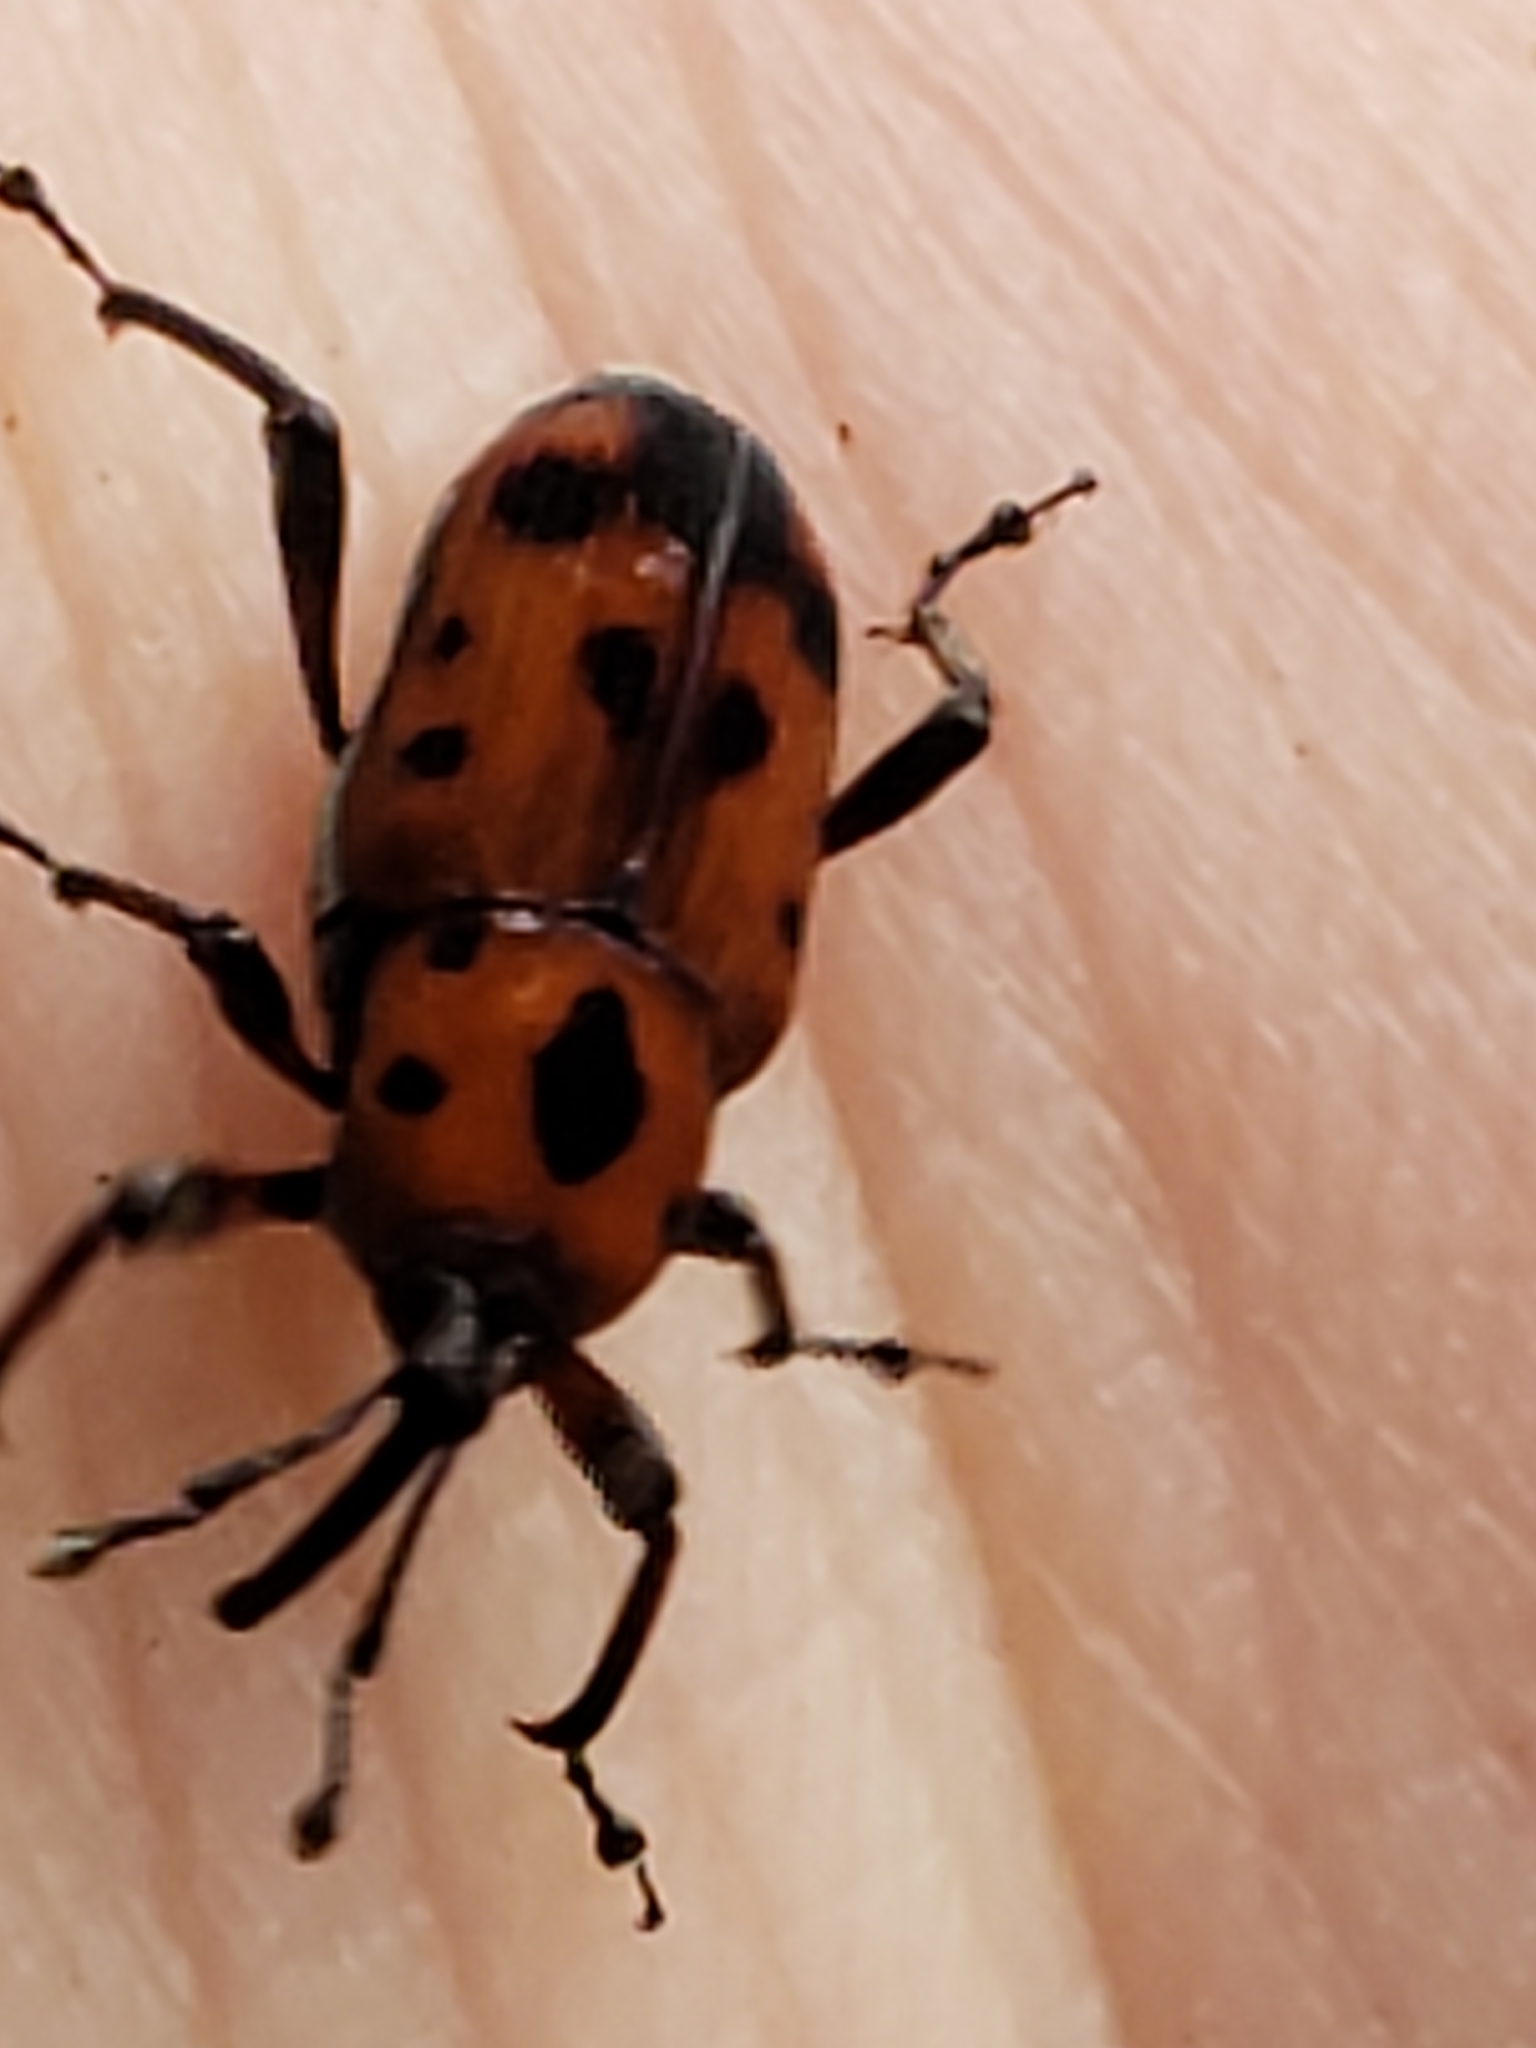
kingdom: Animalia
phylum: Arthropoda
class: Insecta
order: Coleoptera
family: Dryophthoridae
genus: Rhodobaenus
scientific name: Rhodobaenus quinquepunctatus
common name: Cocklebur weevil
